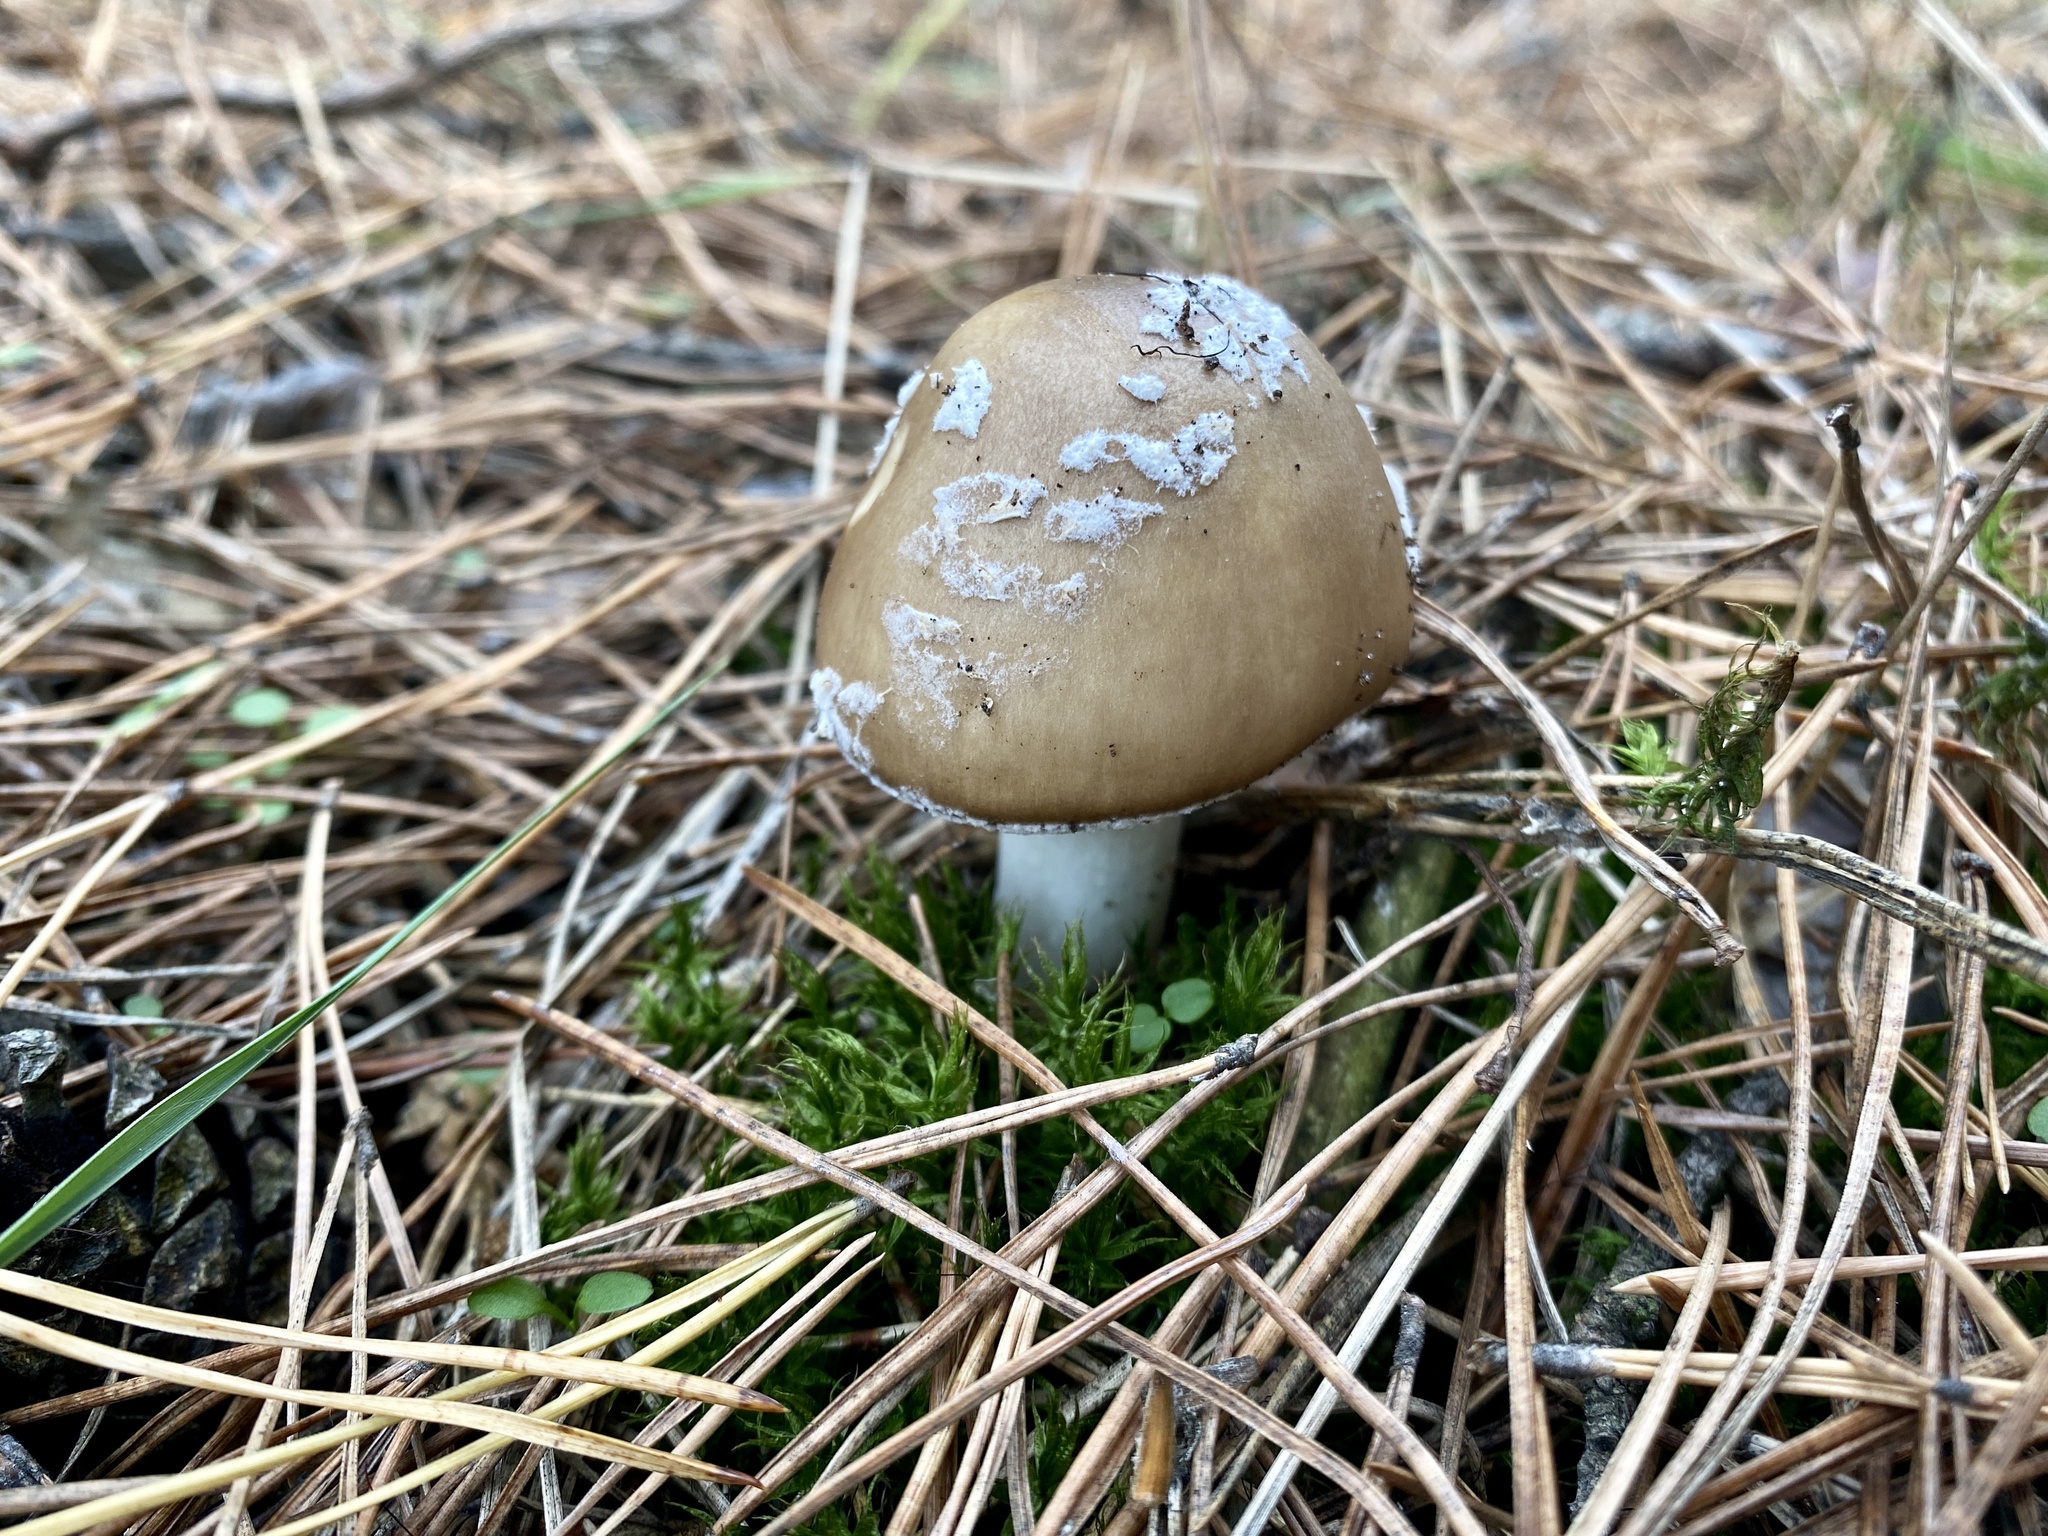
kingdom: Fungi
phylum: Basidiomycota
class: Agaricomycetes
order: Agaricales
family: Amanitaceae
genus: Amanita
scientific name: Amanita pantherina
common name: Panthercap
